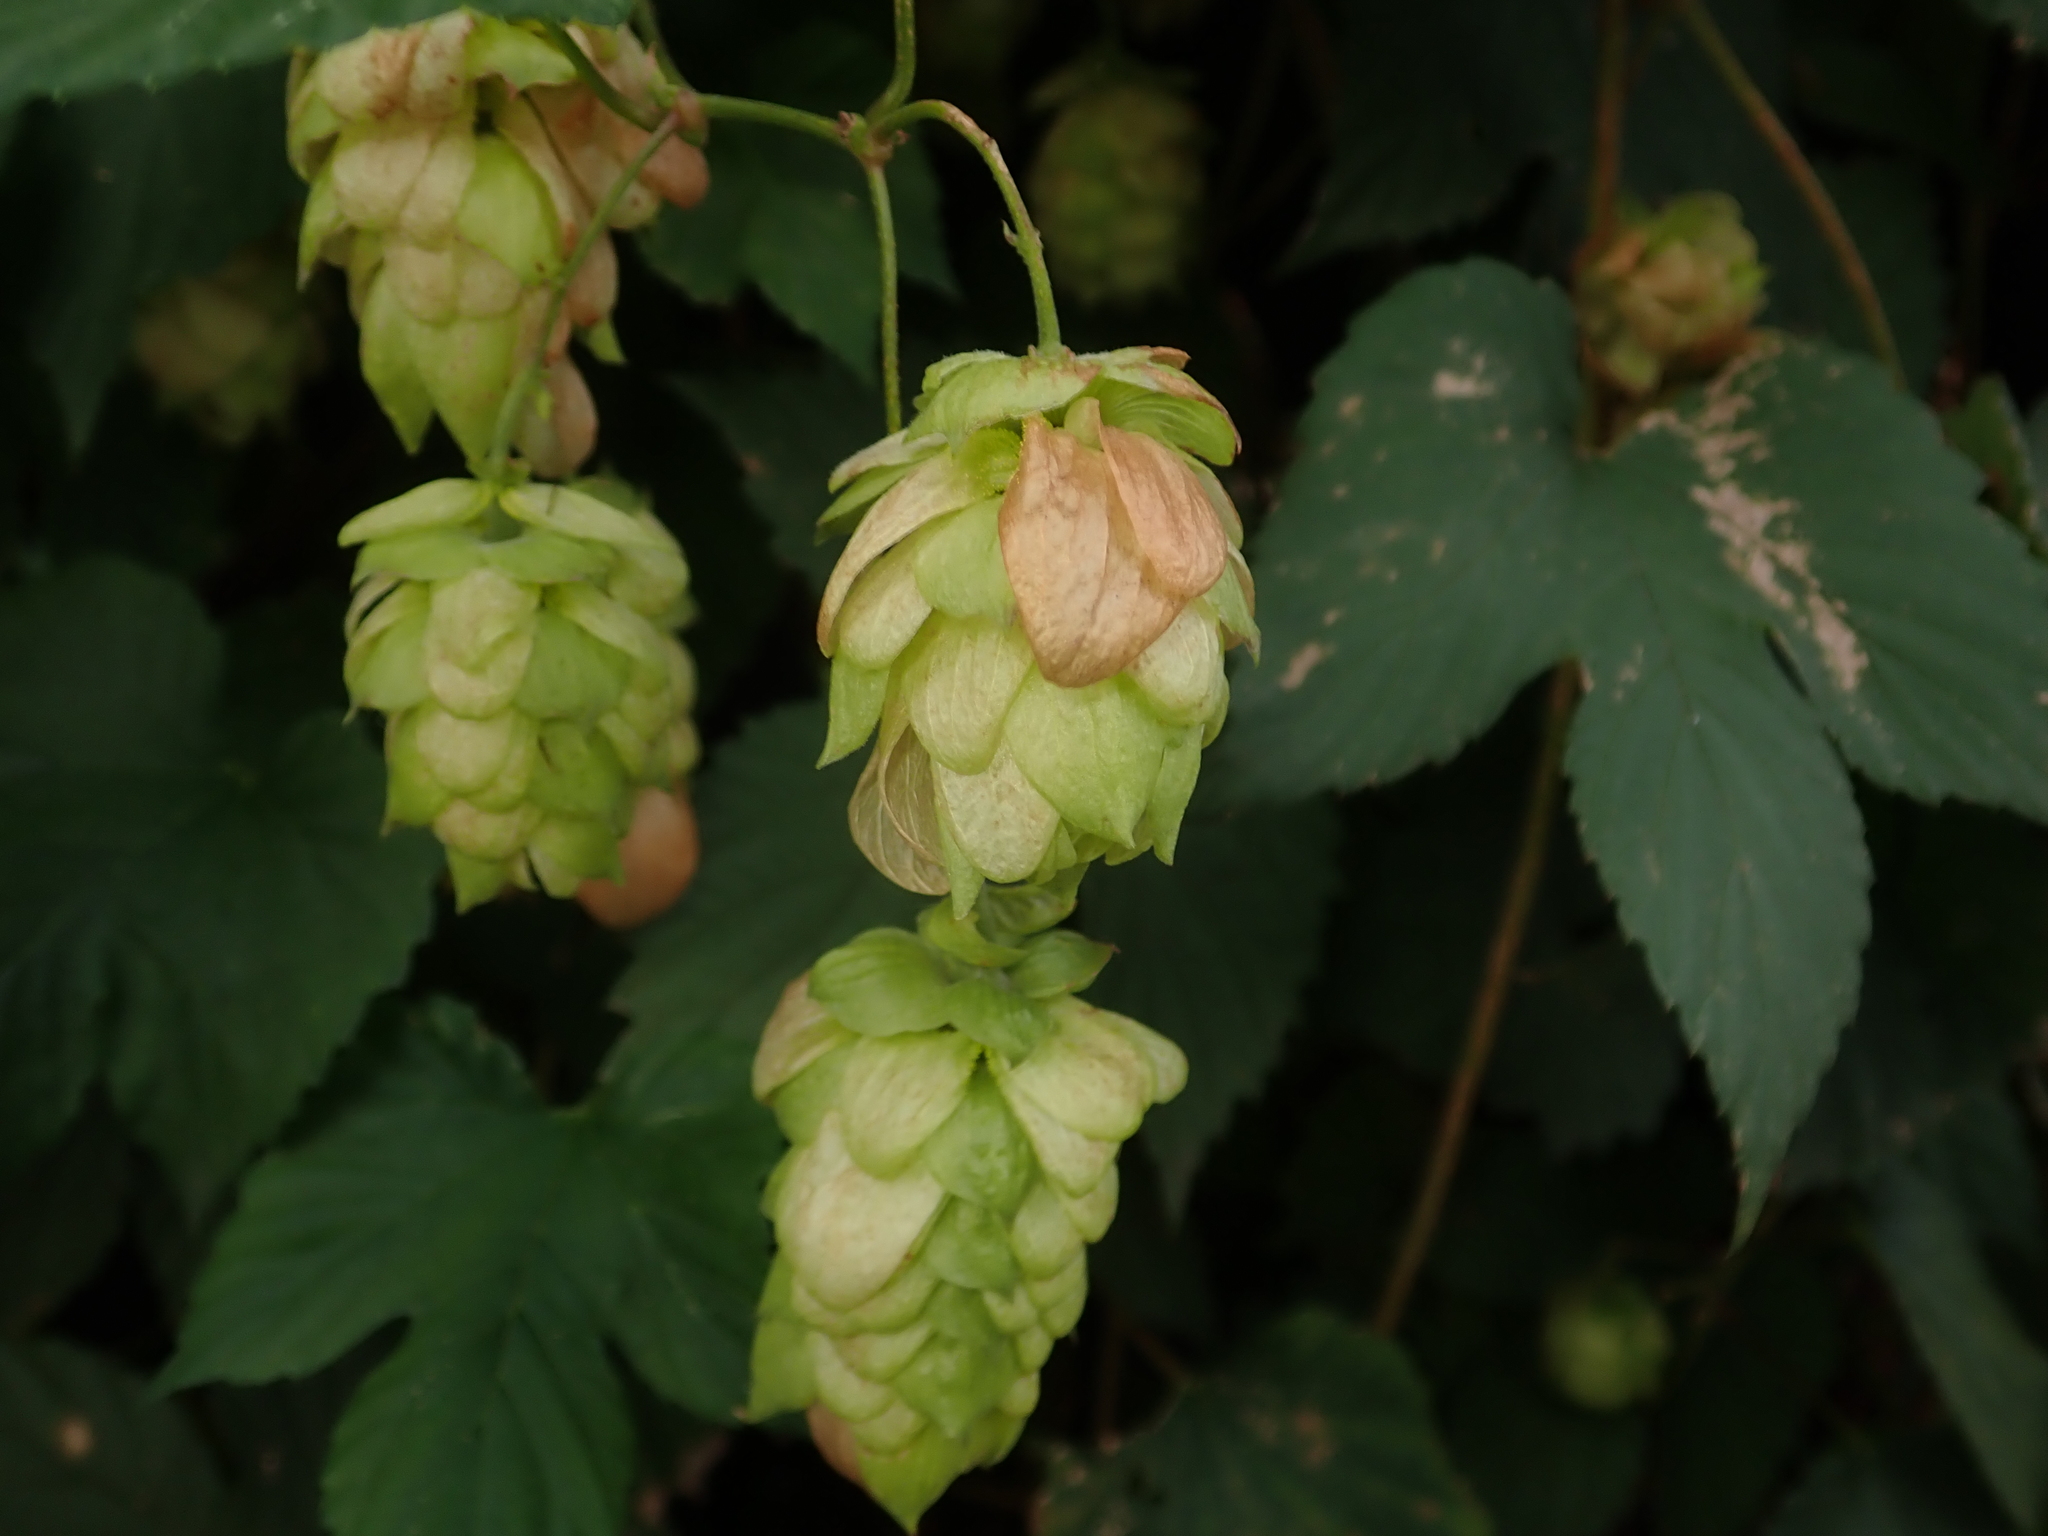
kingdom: Plantae
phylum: Tracheophyta
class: Magnoliopsida
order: Rosales
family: Cannabaceae
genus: Humulus
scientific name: Humulus lupulus
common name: Hop
